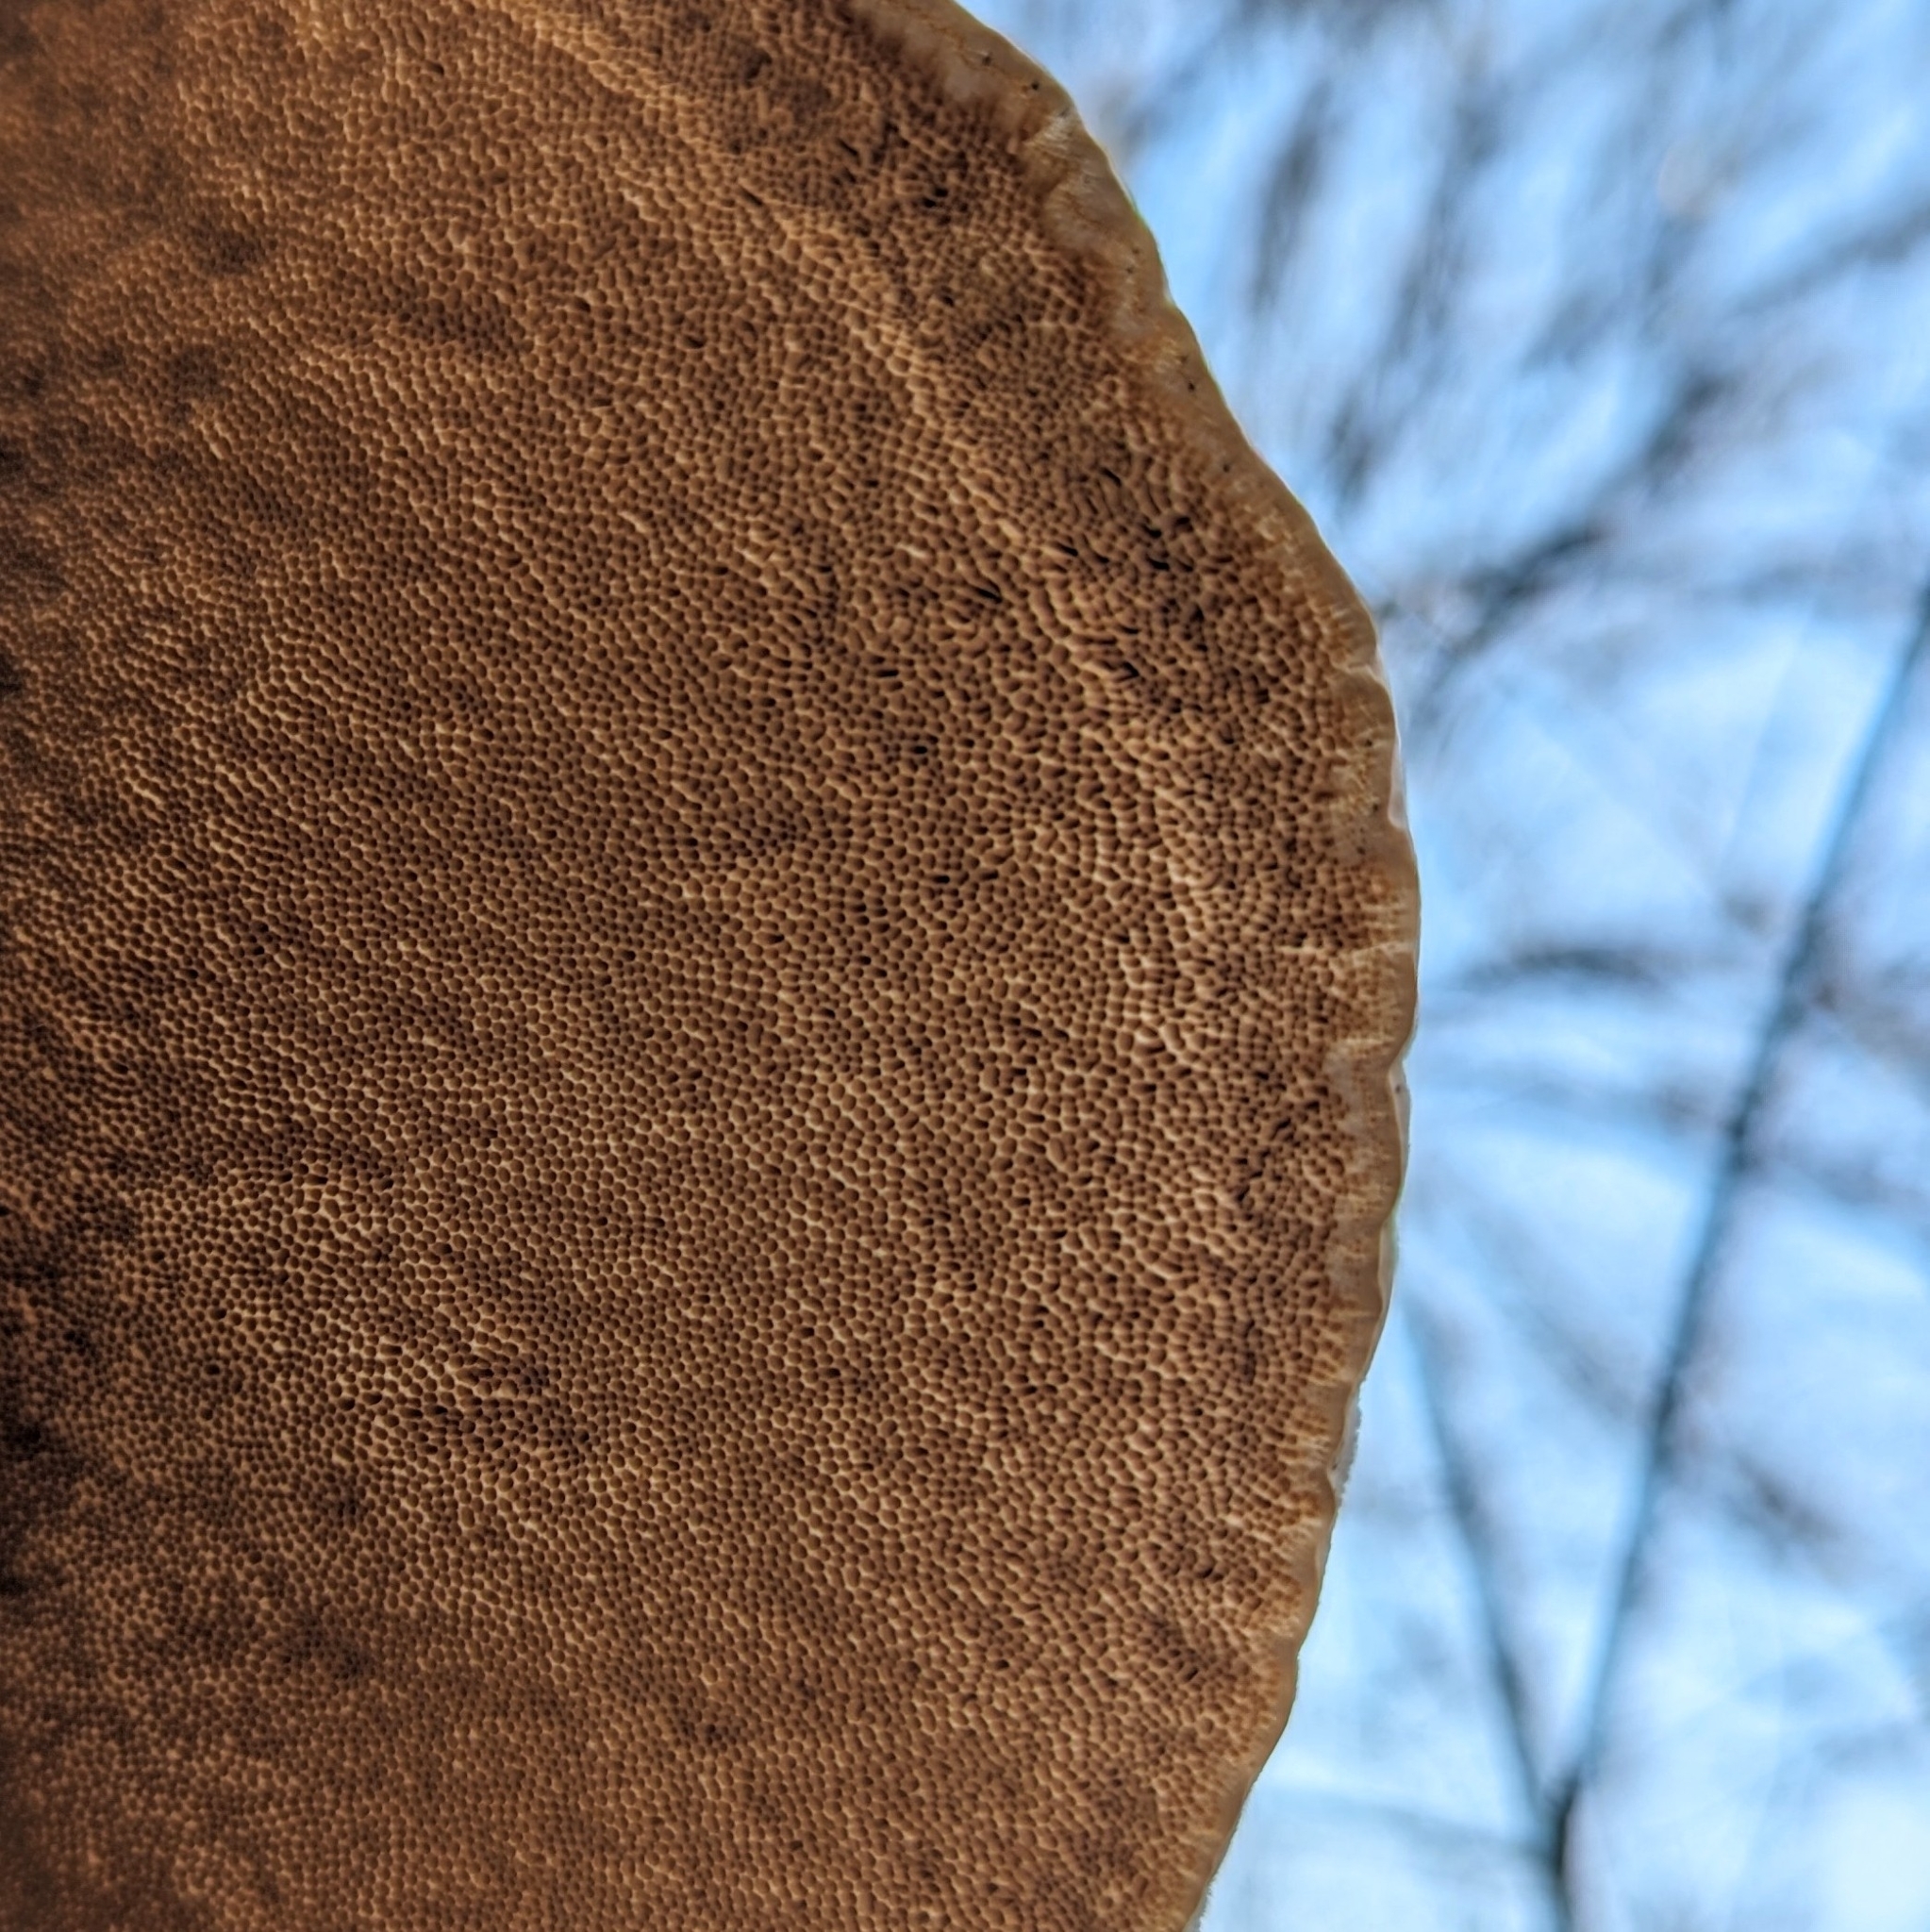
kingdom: Fungi
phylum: Basidiomycota
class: Agaricomycetes
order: Polyporales
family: Polyporaceae
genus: Trametes
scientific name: Trametes suaveolens
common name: Fragrant bracket
